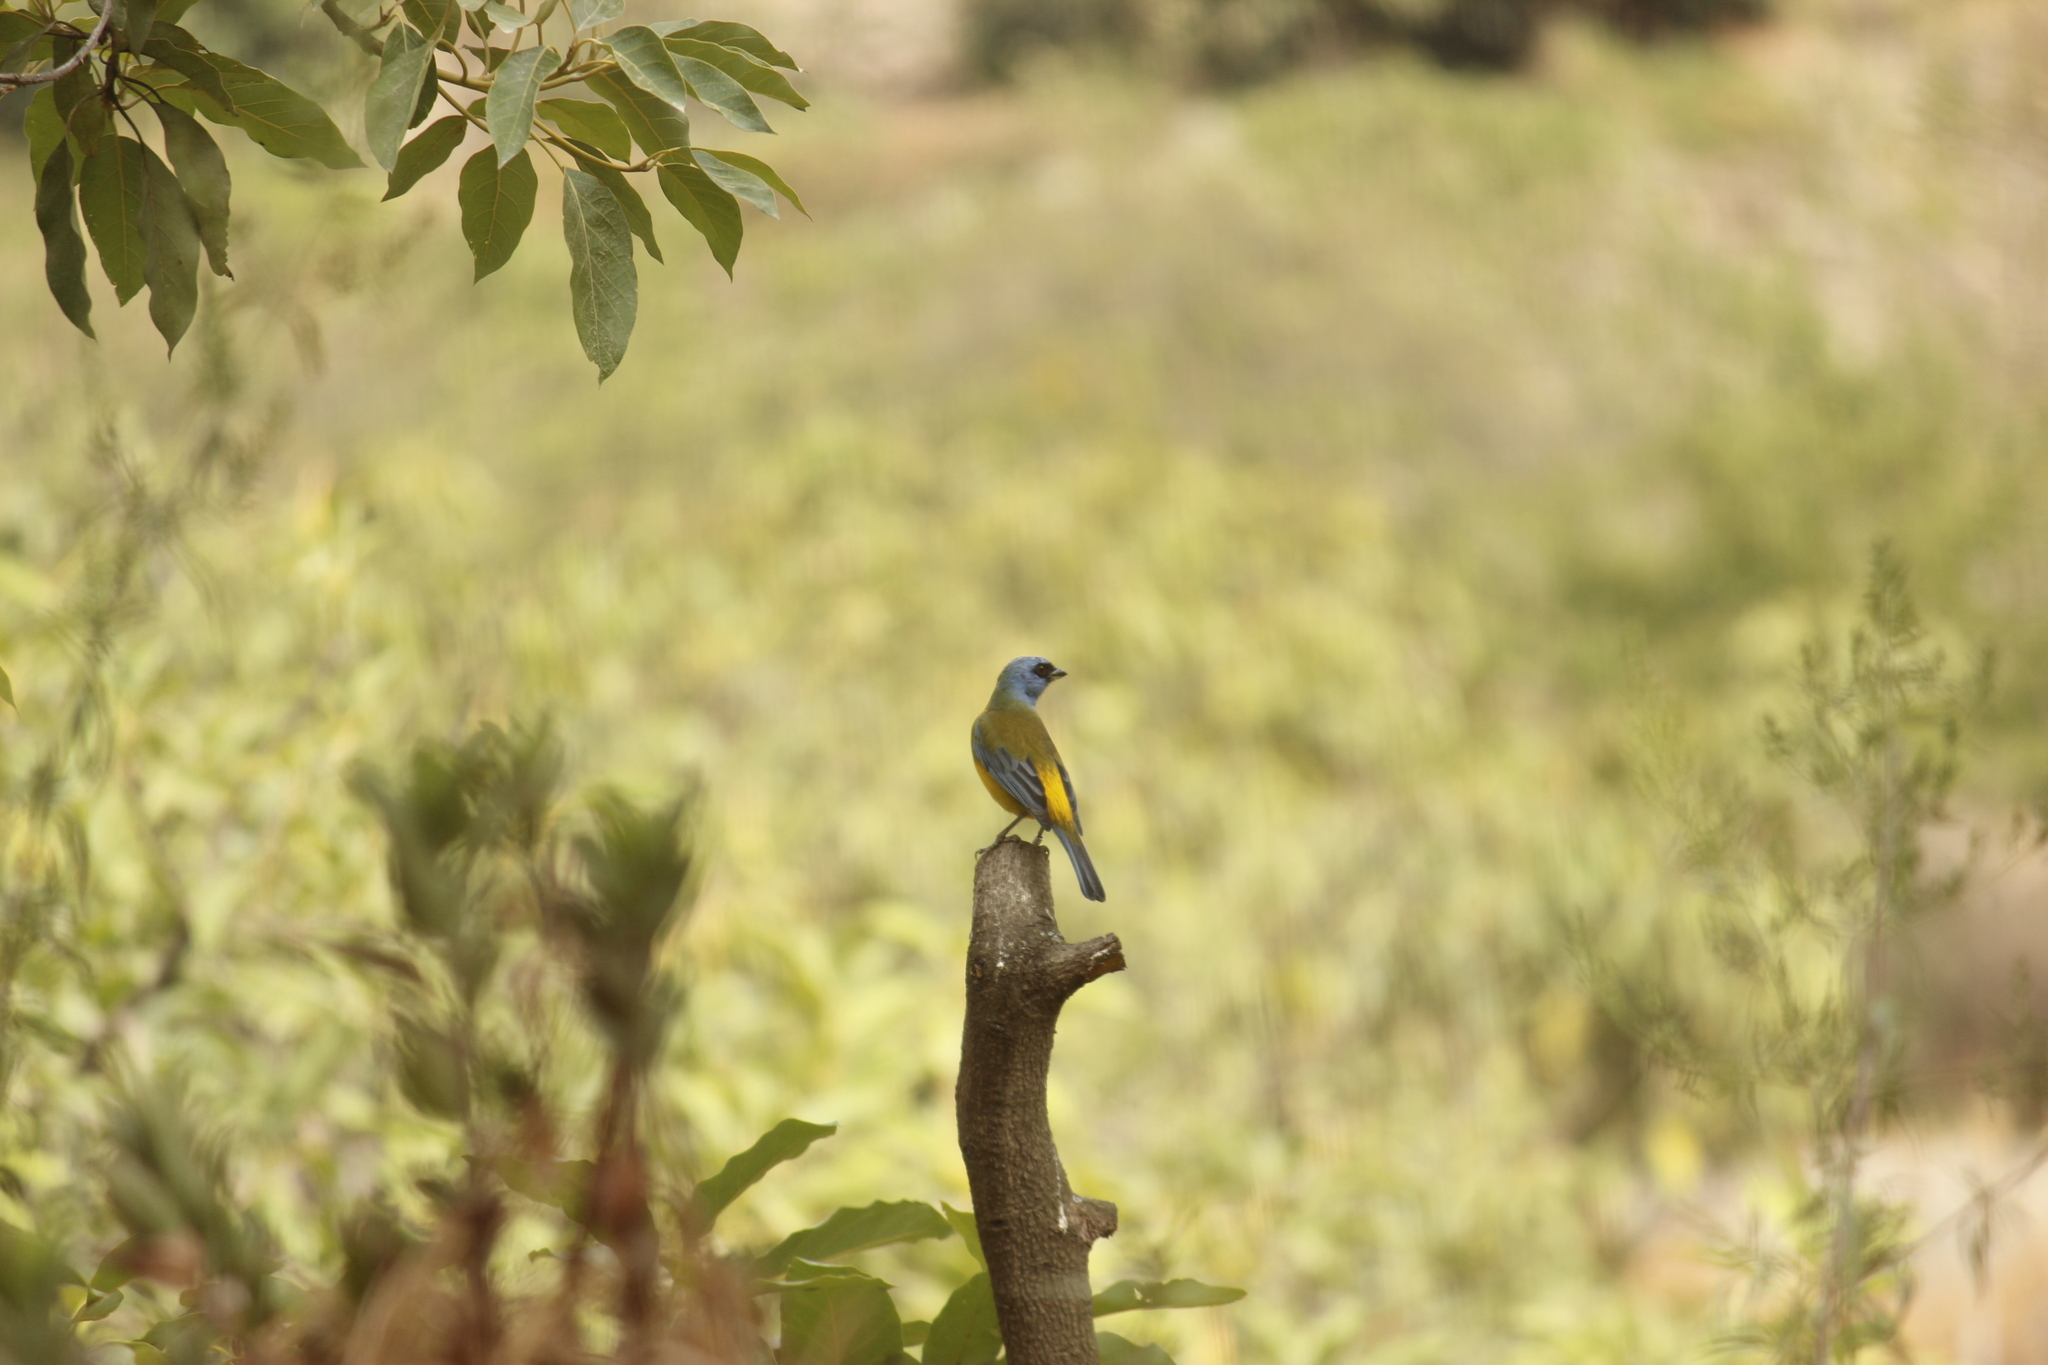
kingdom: Animalia
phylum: Chordata
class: Aves
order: Passeriformes
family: Thraupidae
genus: Rauenia
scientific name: Rauenia bonariensis
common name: Blue-and-yellow tanager
